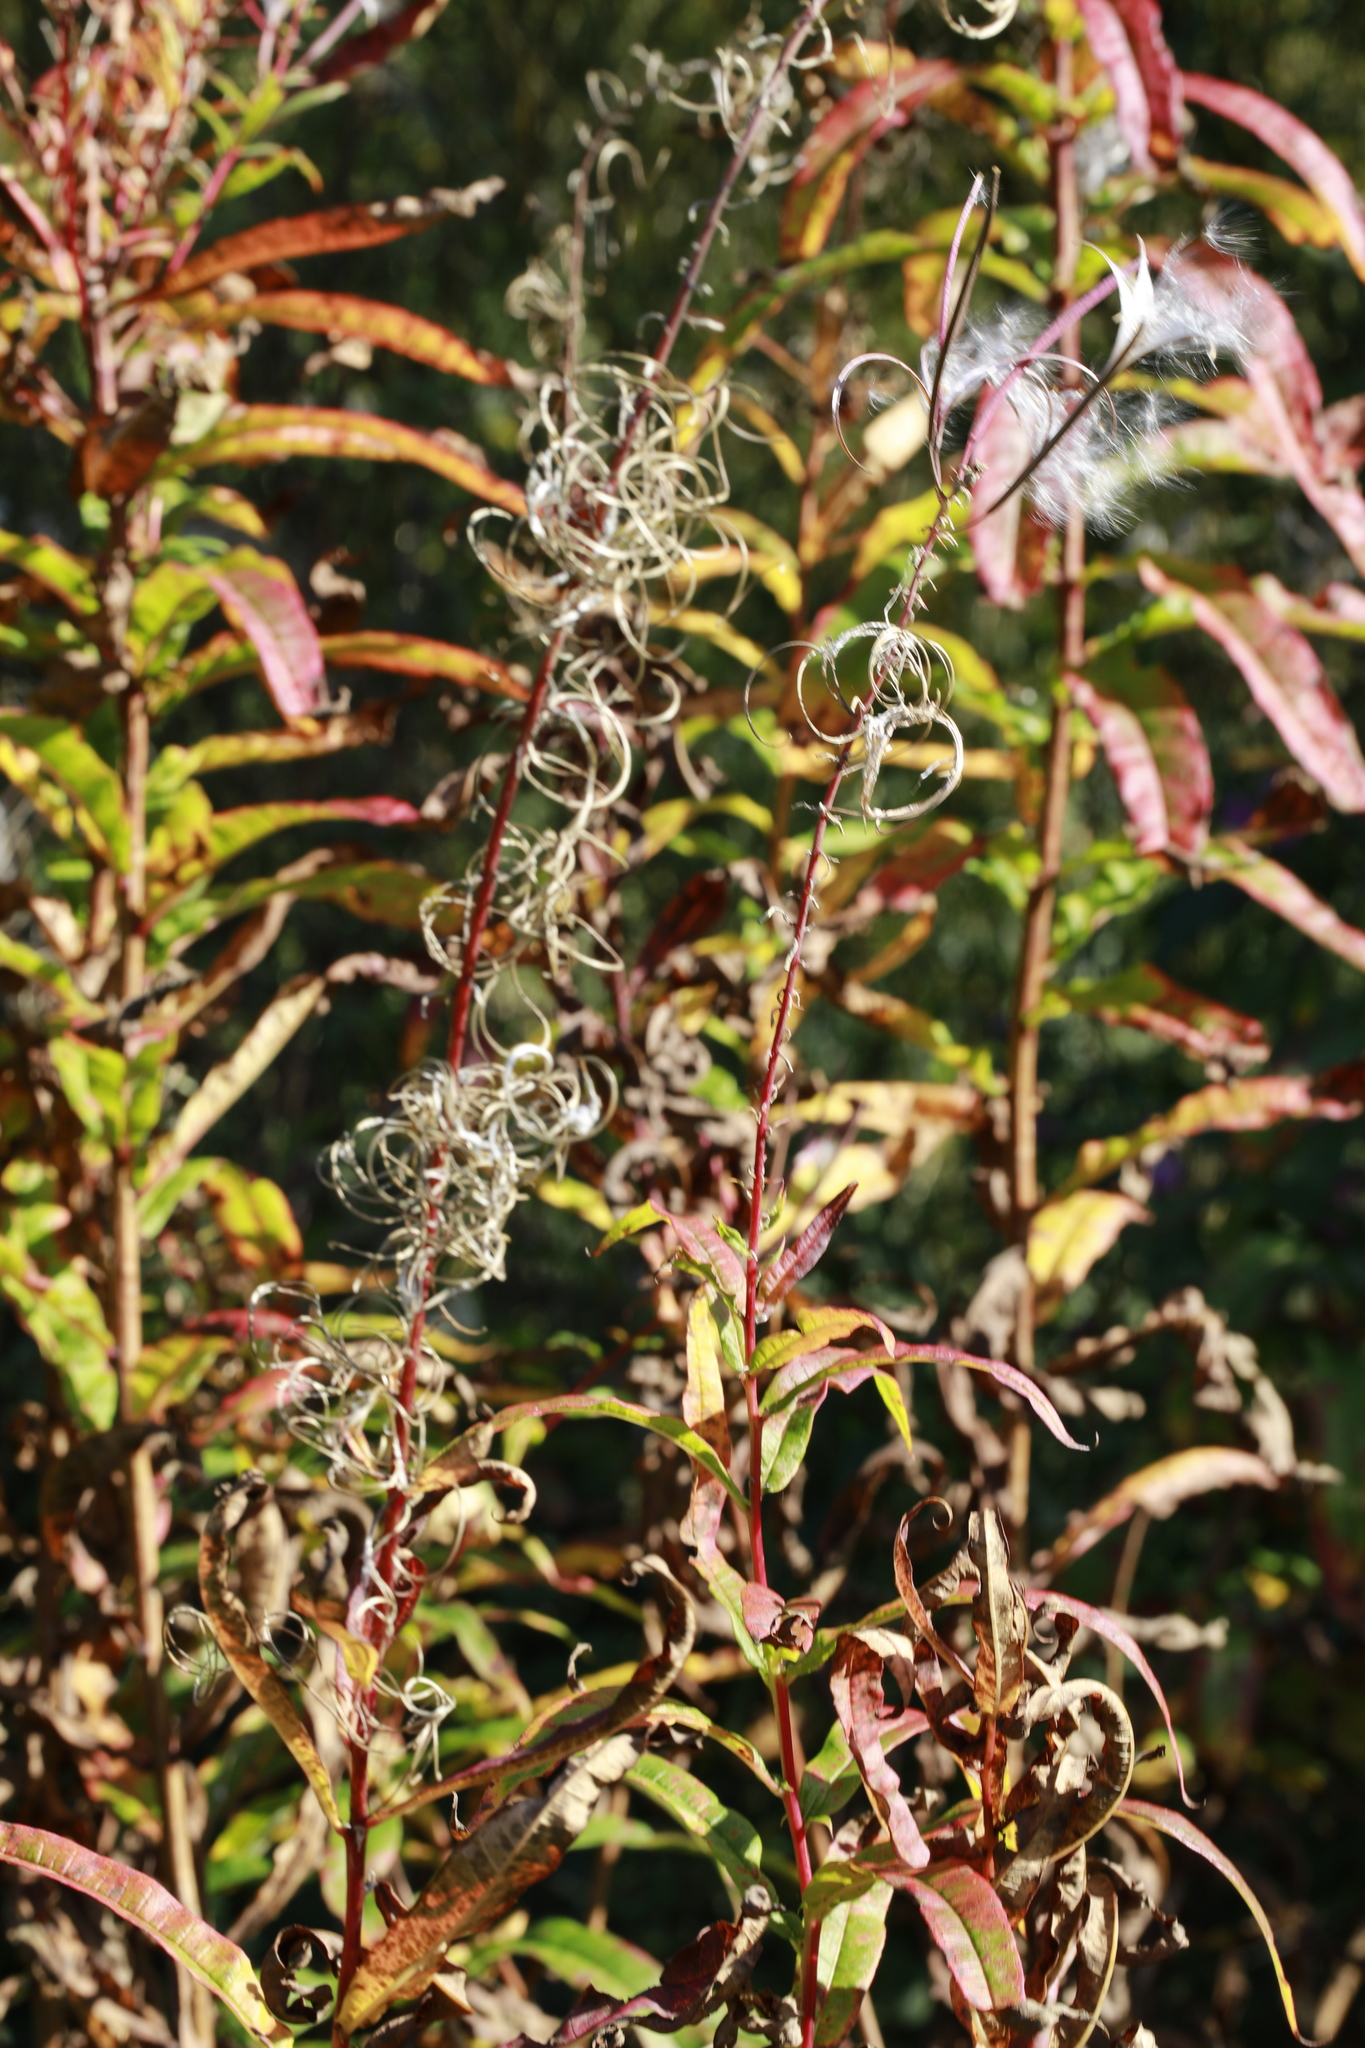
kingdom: Plantae
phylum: Tracheophyta
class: Magnoliopsida
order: Myrtales
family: Onagraceae
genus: Chamaenerion
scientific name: Chamaenerion angustifolium
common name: Fireweed
